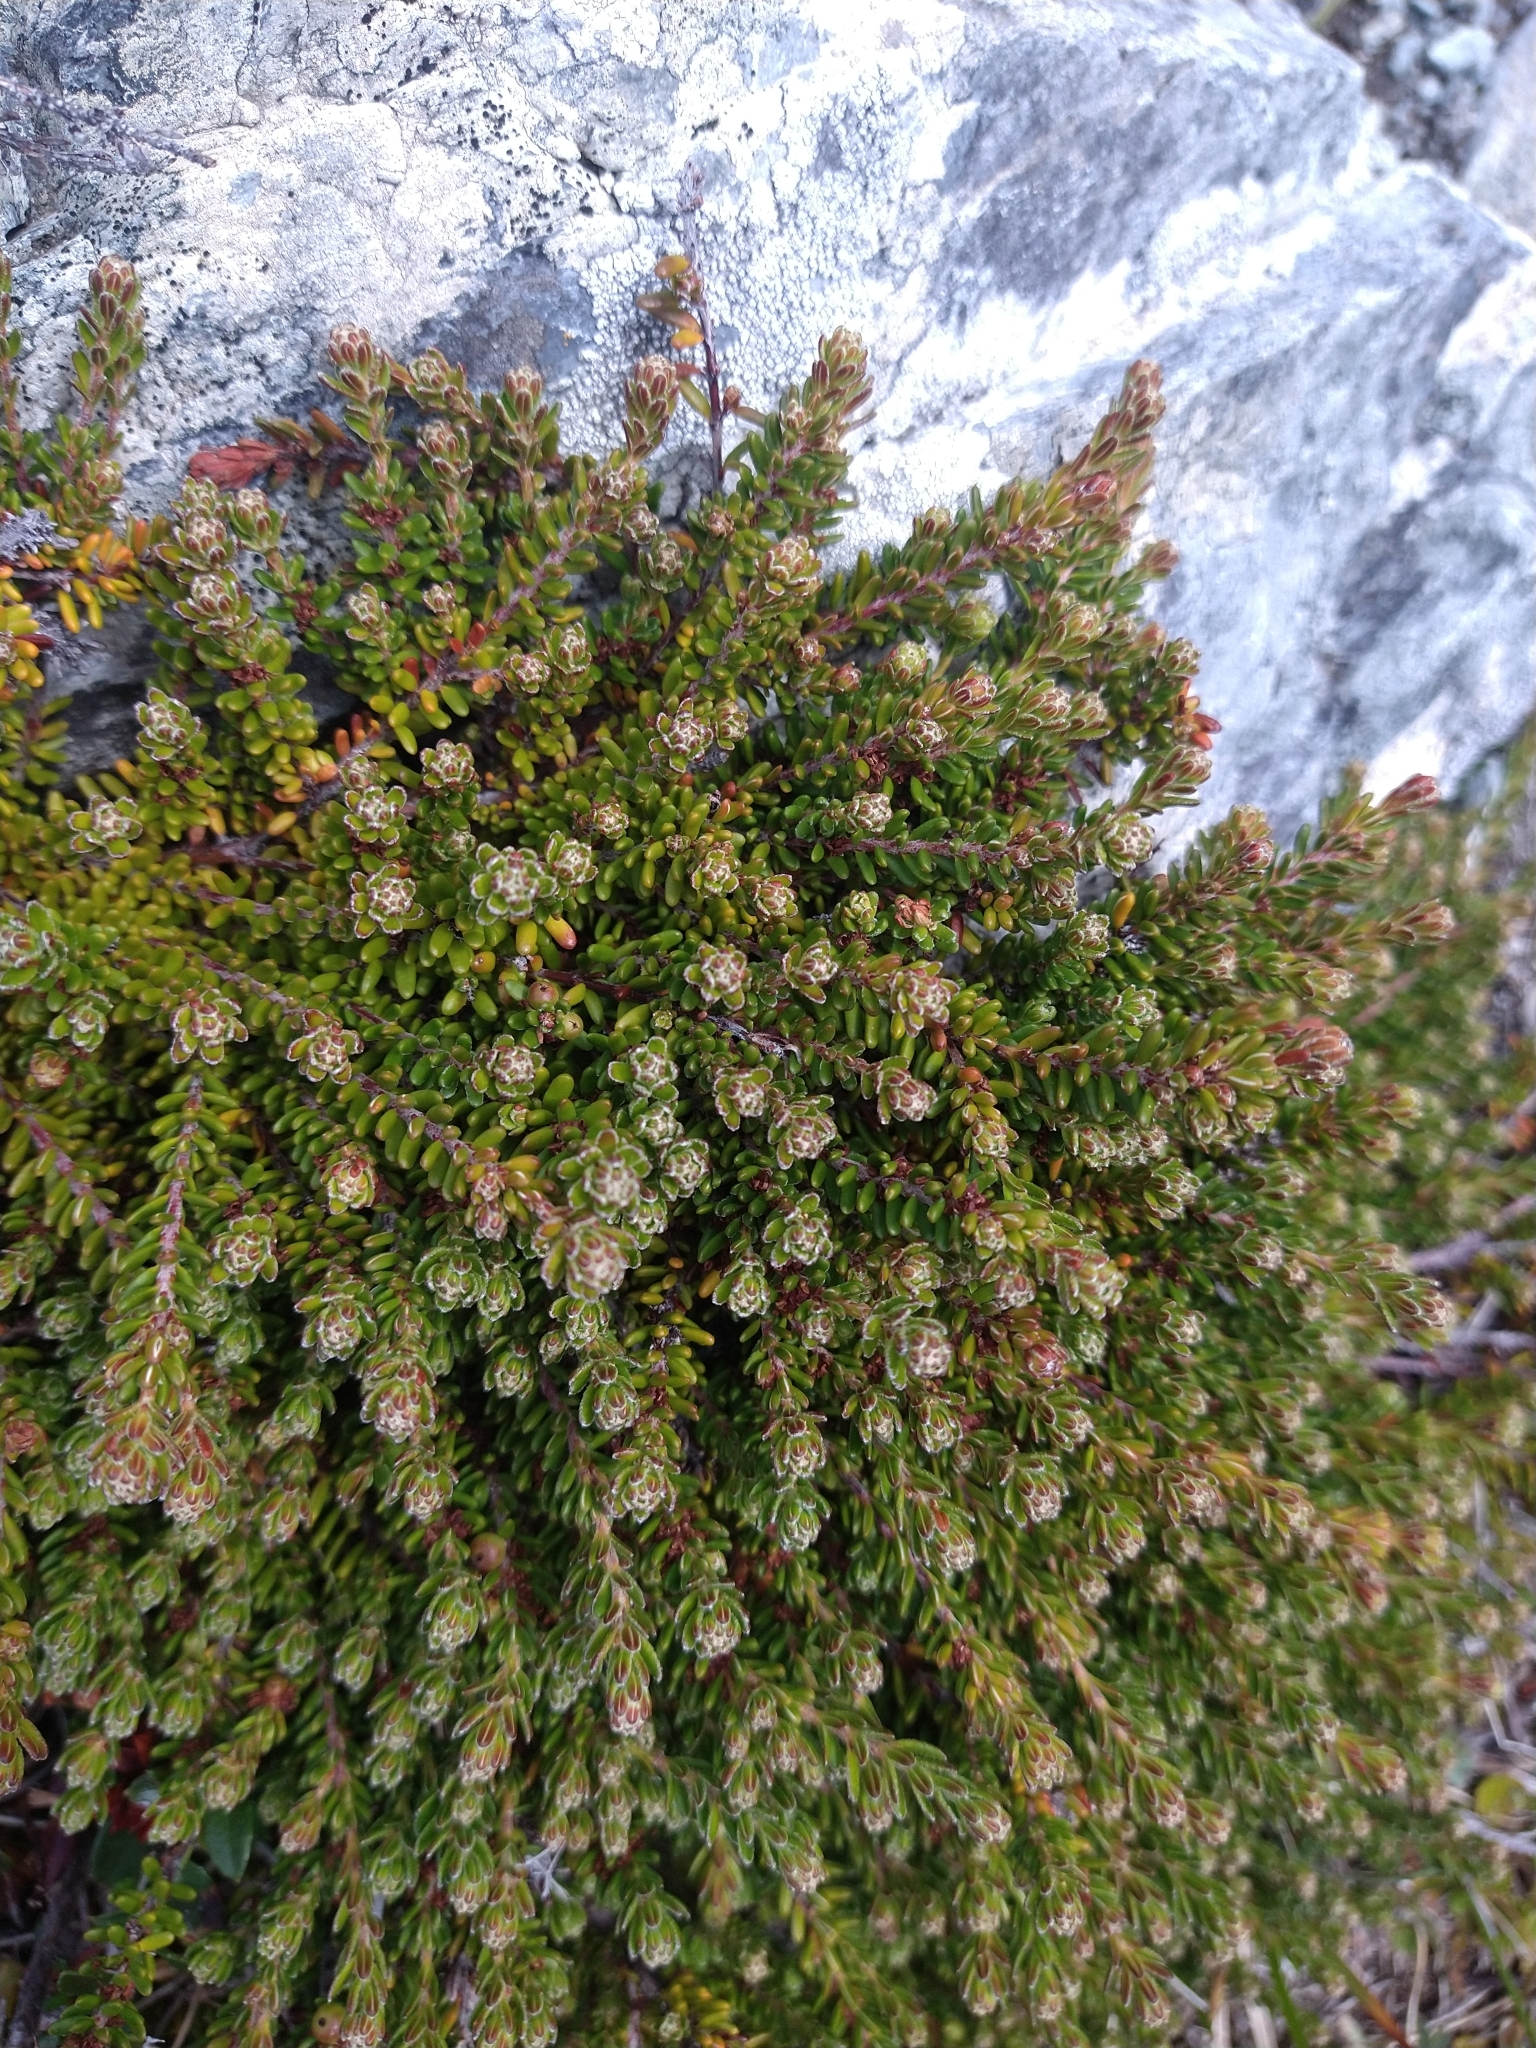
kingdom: Plantae
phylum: Tracheophyta
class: Magnoliopsida
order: Ericales
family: Ericaceae
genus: Empetrum
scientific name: Empetrum rubrum
